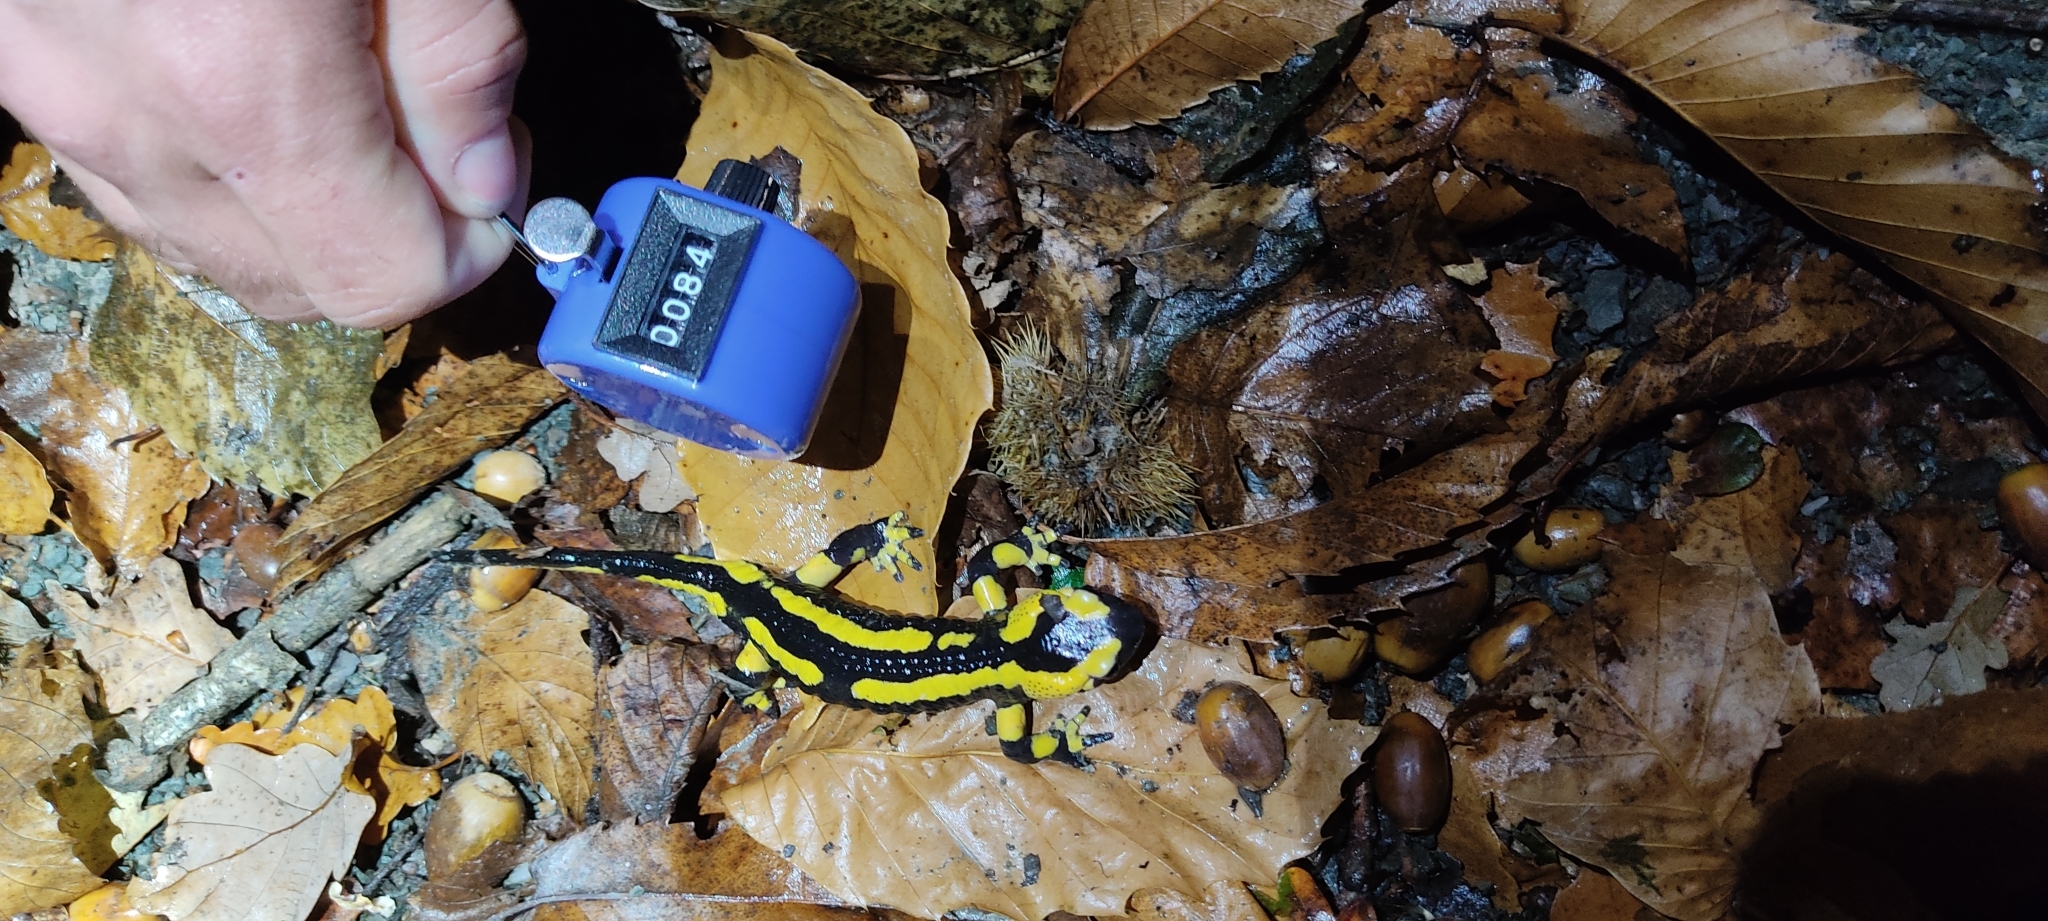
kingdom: Animalia
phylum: Chordata
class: Amphibia
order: Caudata
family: Salamandridae
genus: Salamandra
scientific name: Salamandra salamandra
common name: Fire salamander
